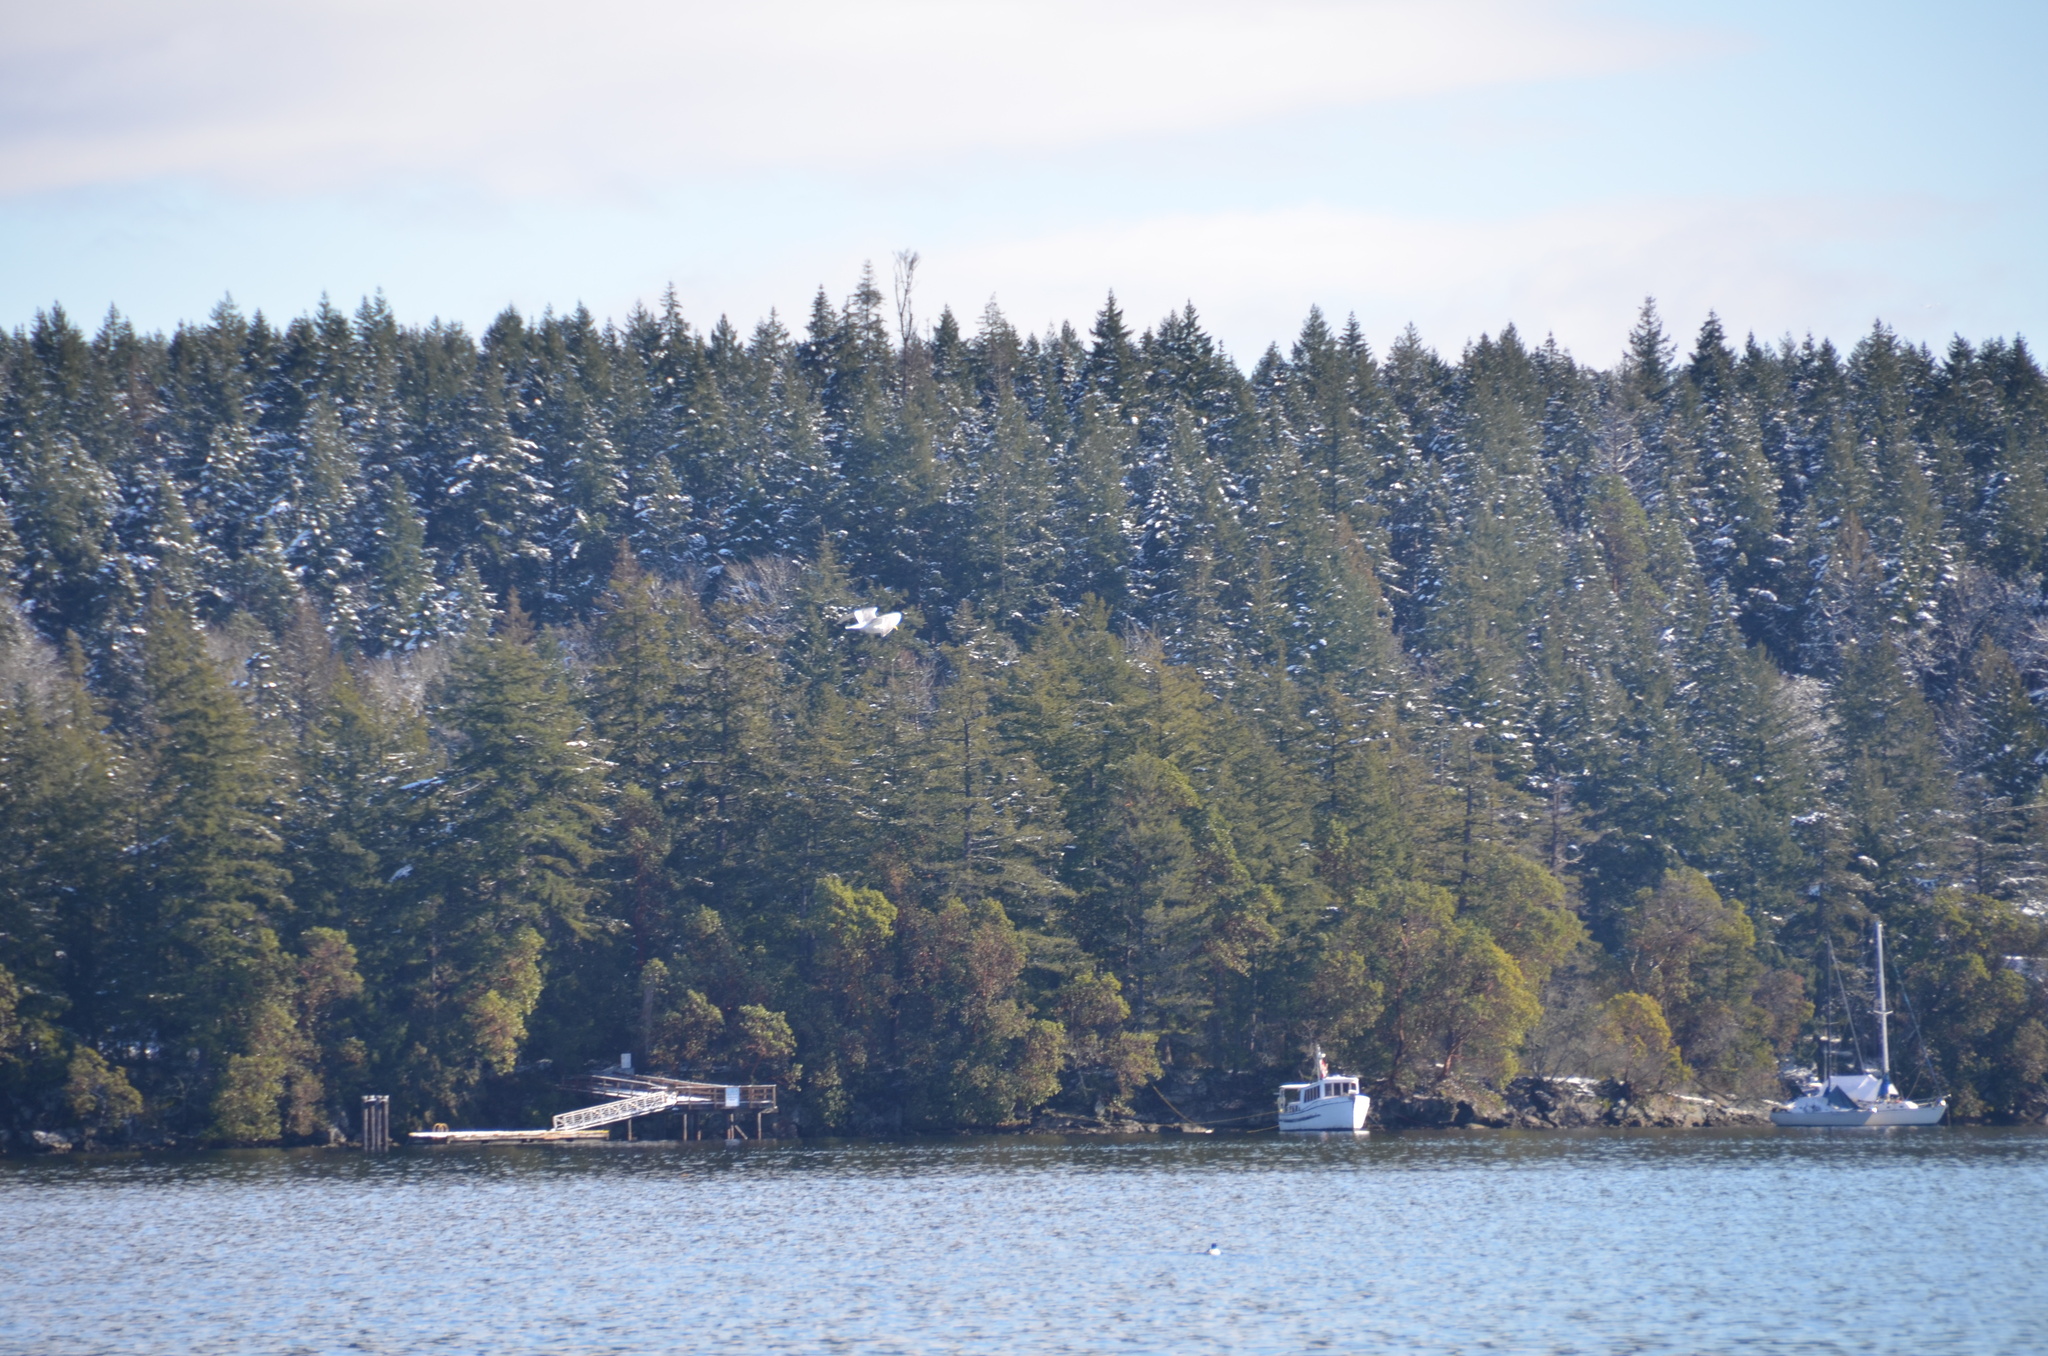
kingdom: Animalia
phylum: Chordata
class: Aves
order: Charadriiformes
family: Laridae
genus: Larus
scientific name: Larus glaucescens
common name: Glaucous-winged gull
